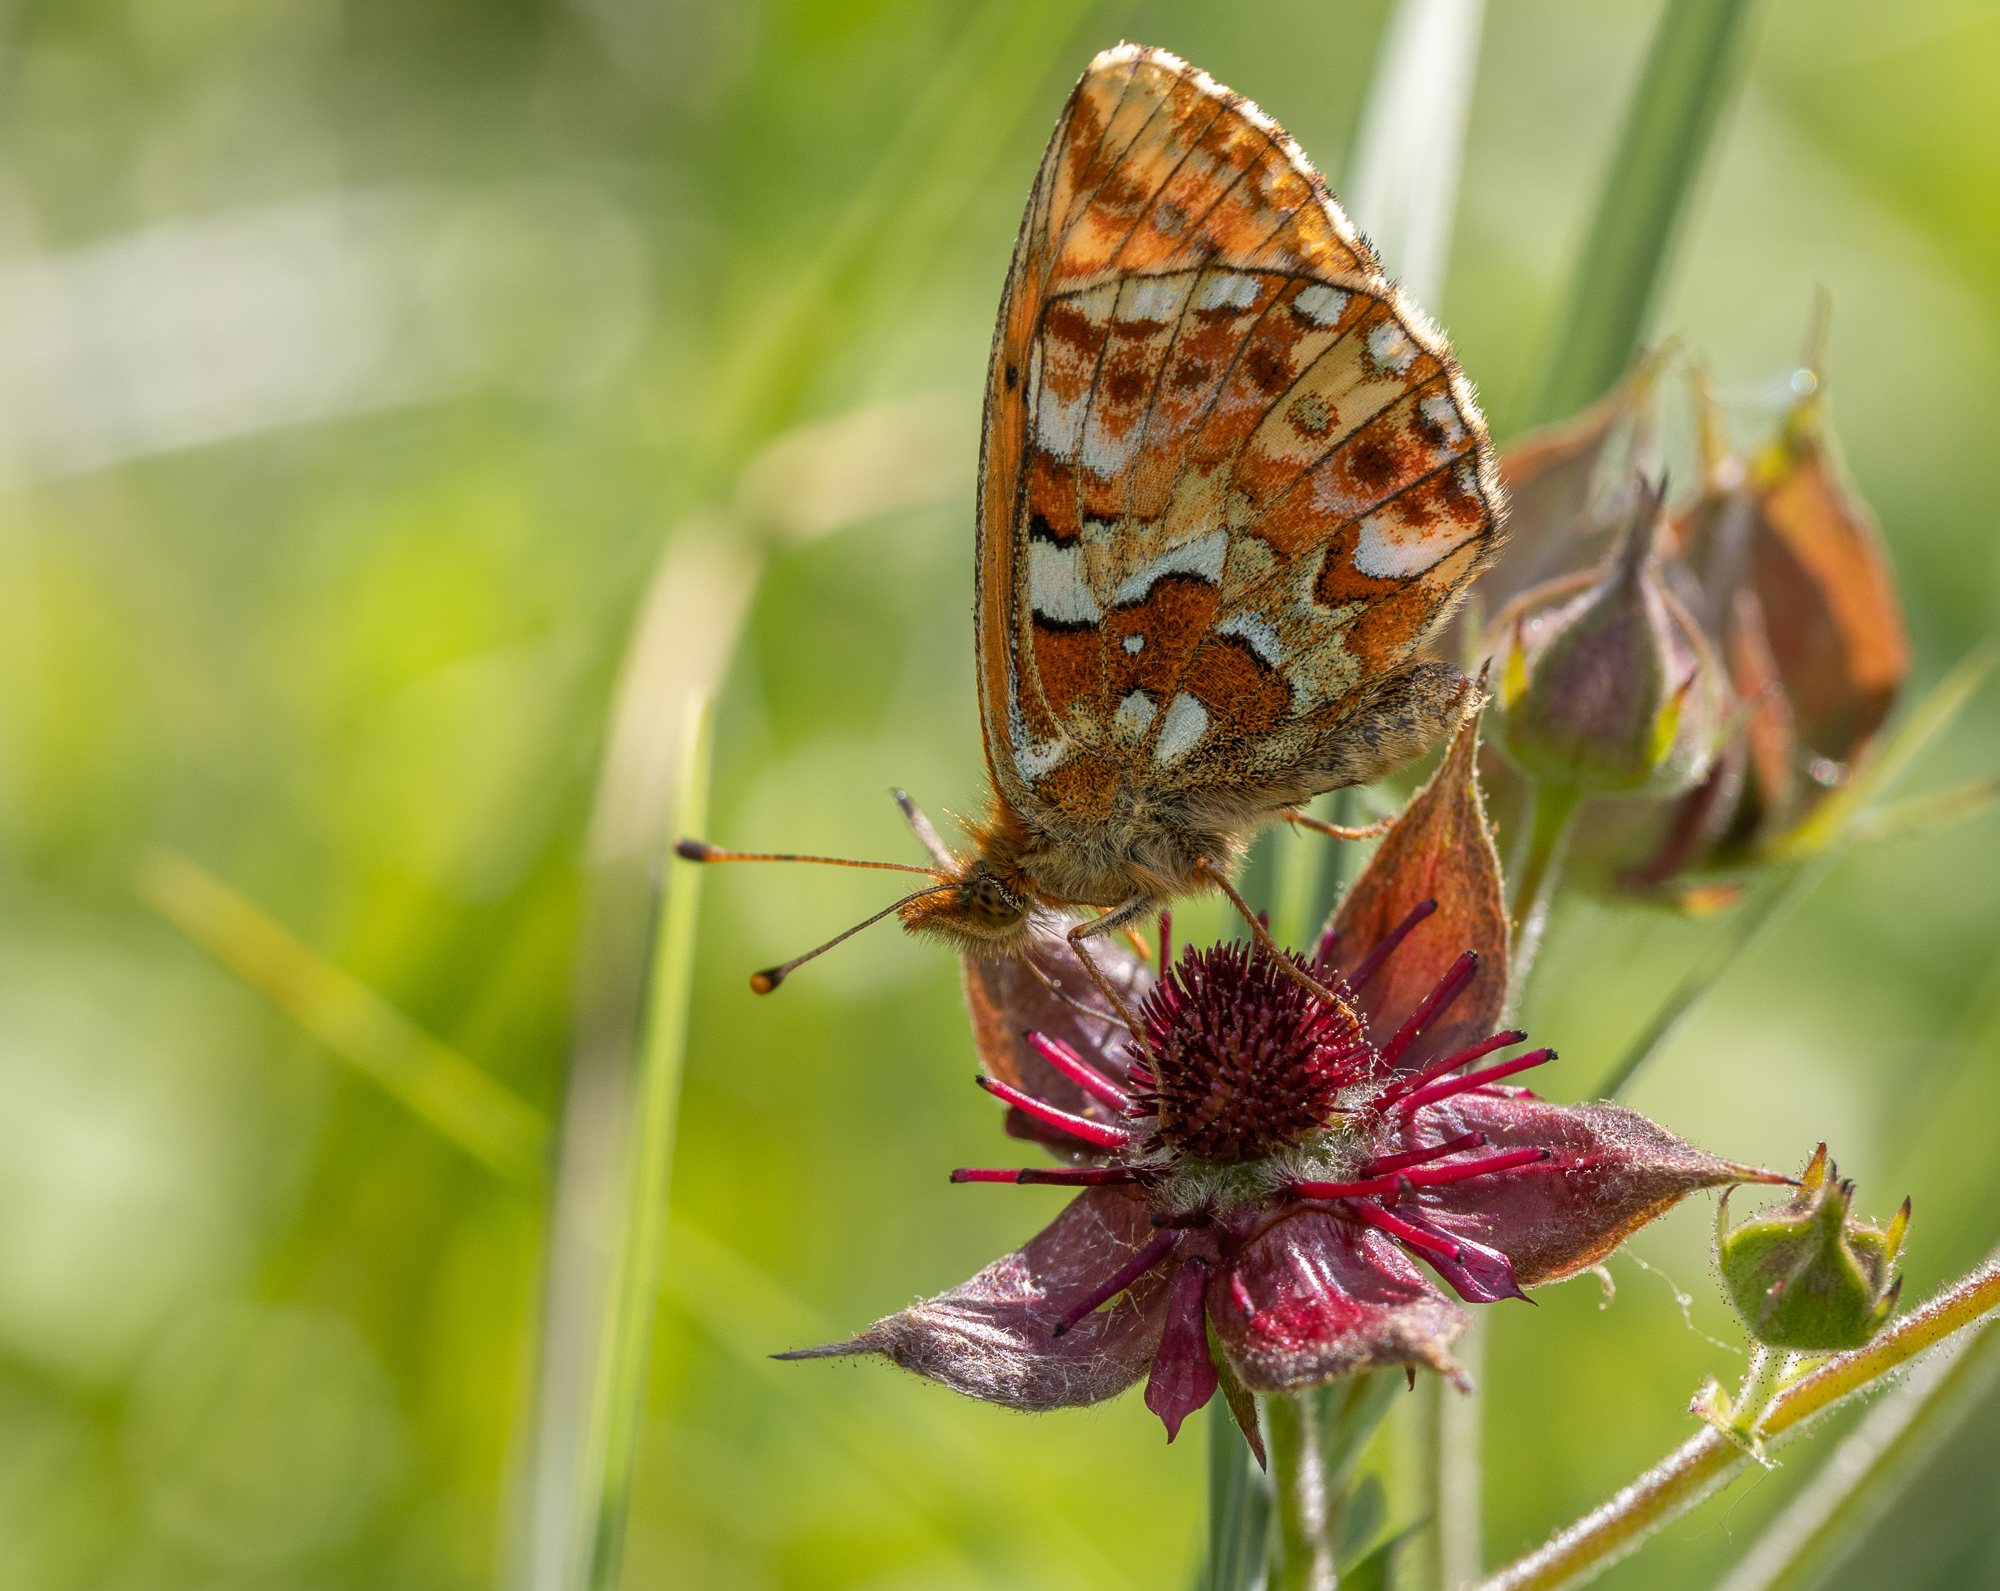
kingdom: Animalia
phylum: Arthropoda
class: Insecta
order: Lepidoptera
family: Nymphalidae
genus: Boloria
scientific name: Boloria aquilonaris
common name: Cranberry fritillary
